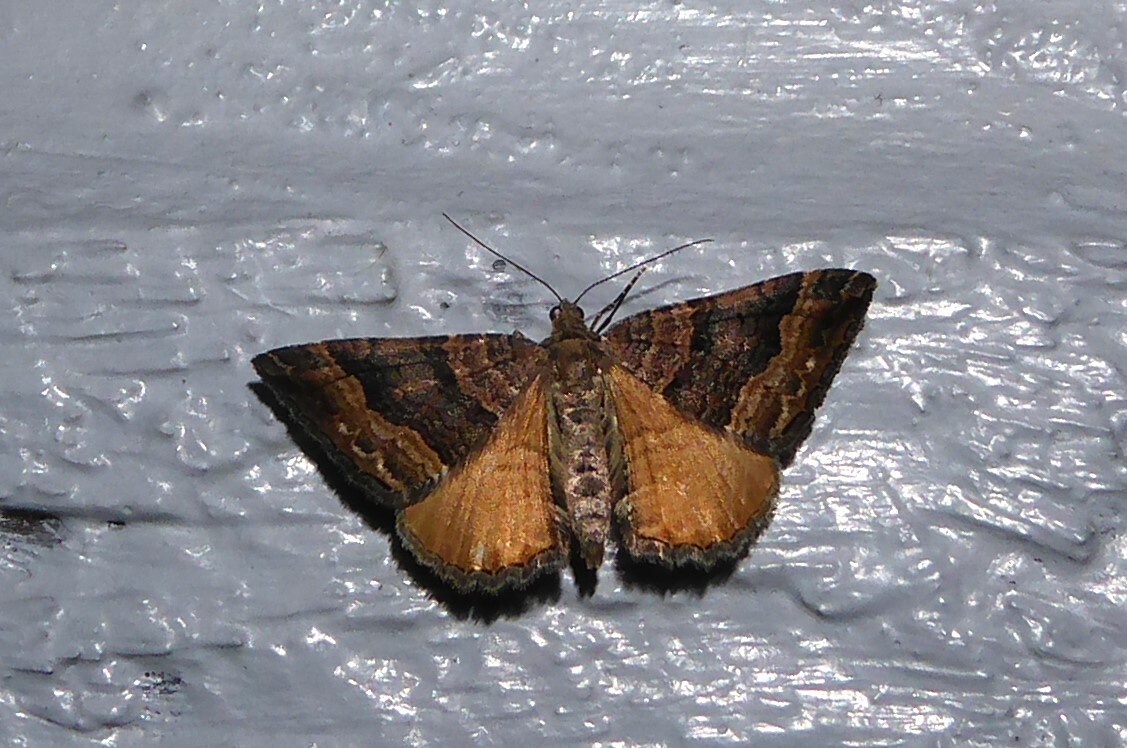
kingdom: Animalia
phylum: Arthropoda
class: Insecta
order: Lepidoptera
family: Geometridae
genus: Hydriomena
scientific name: Hydriomena deltoidata
